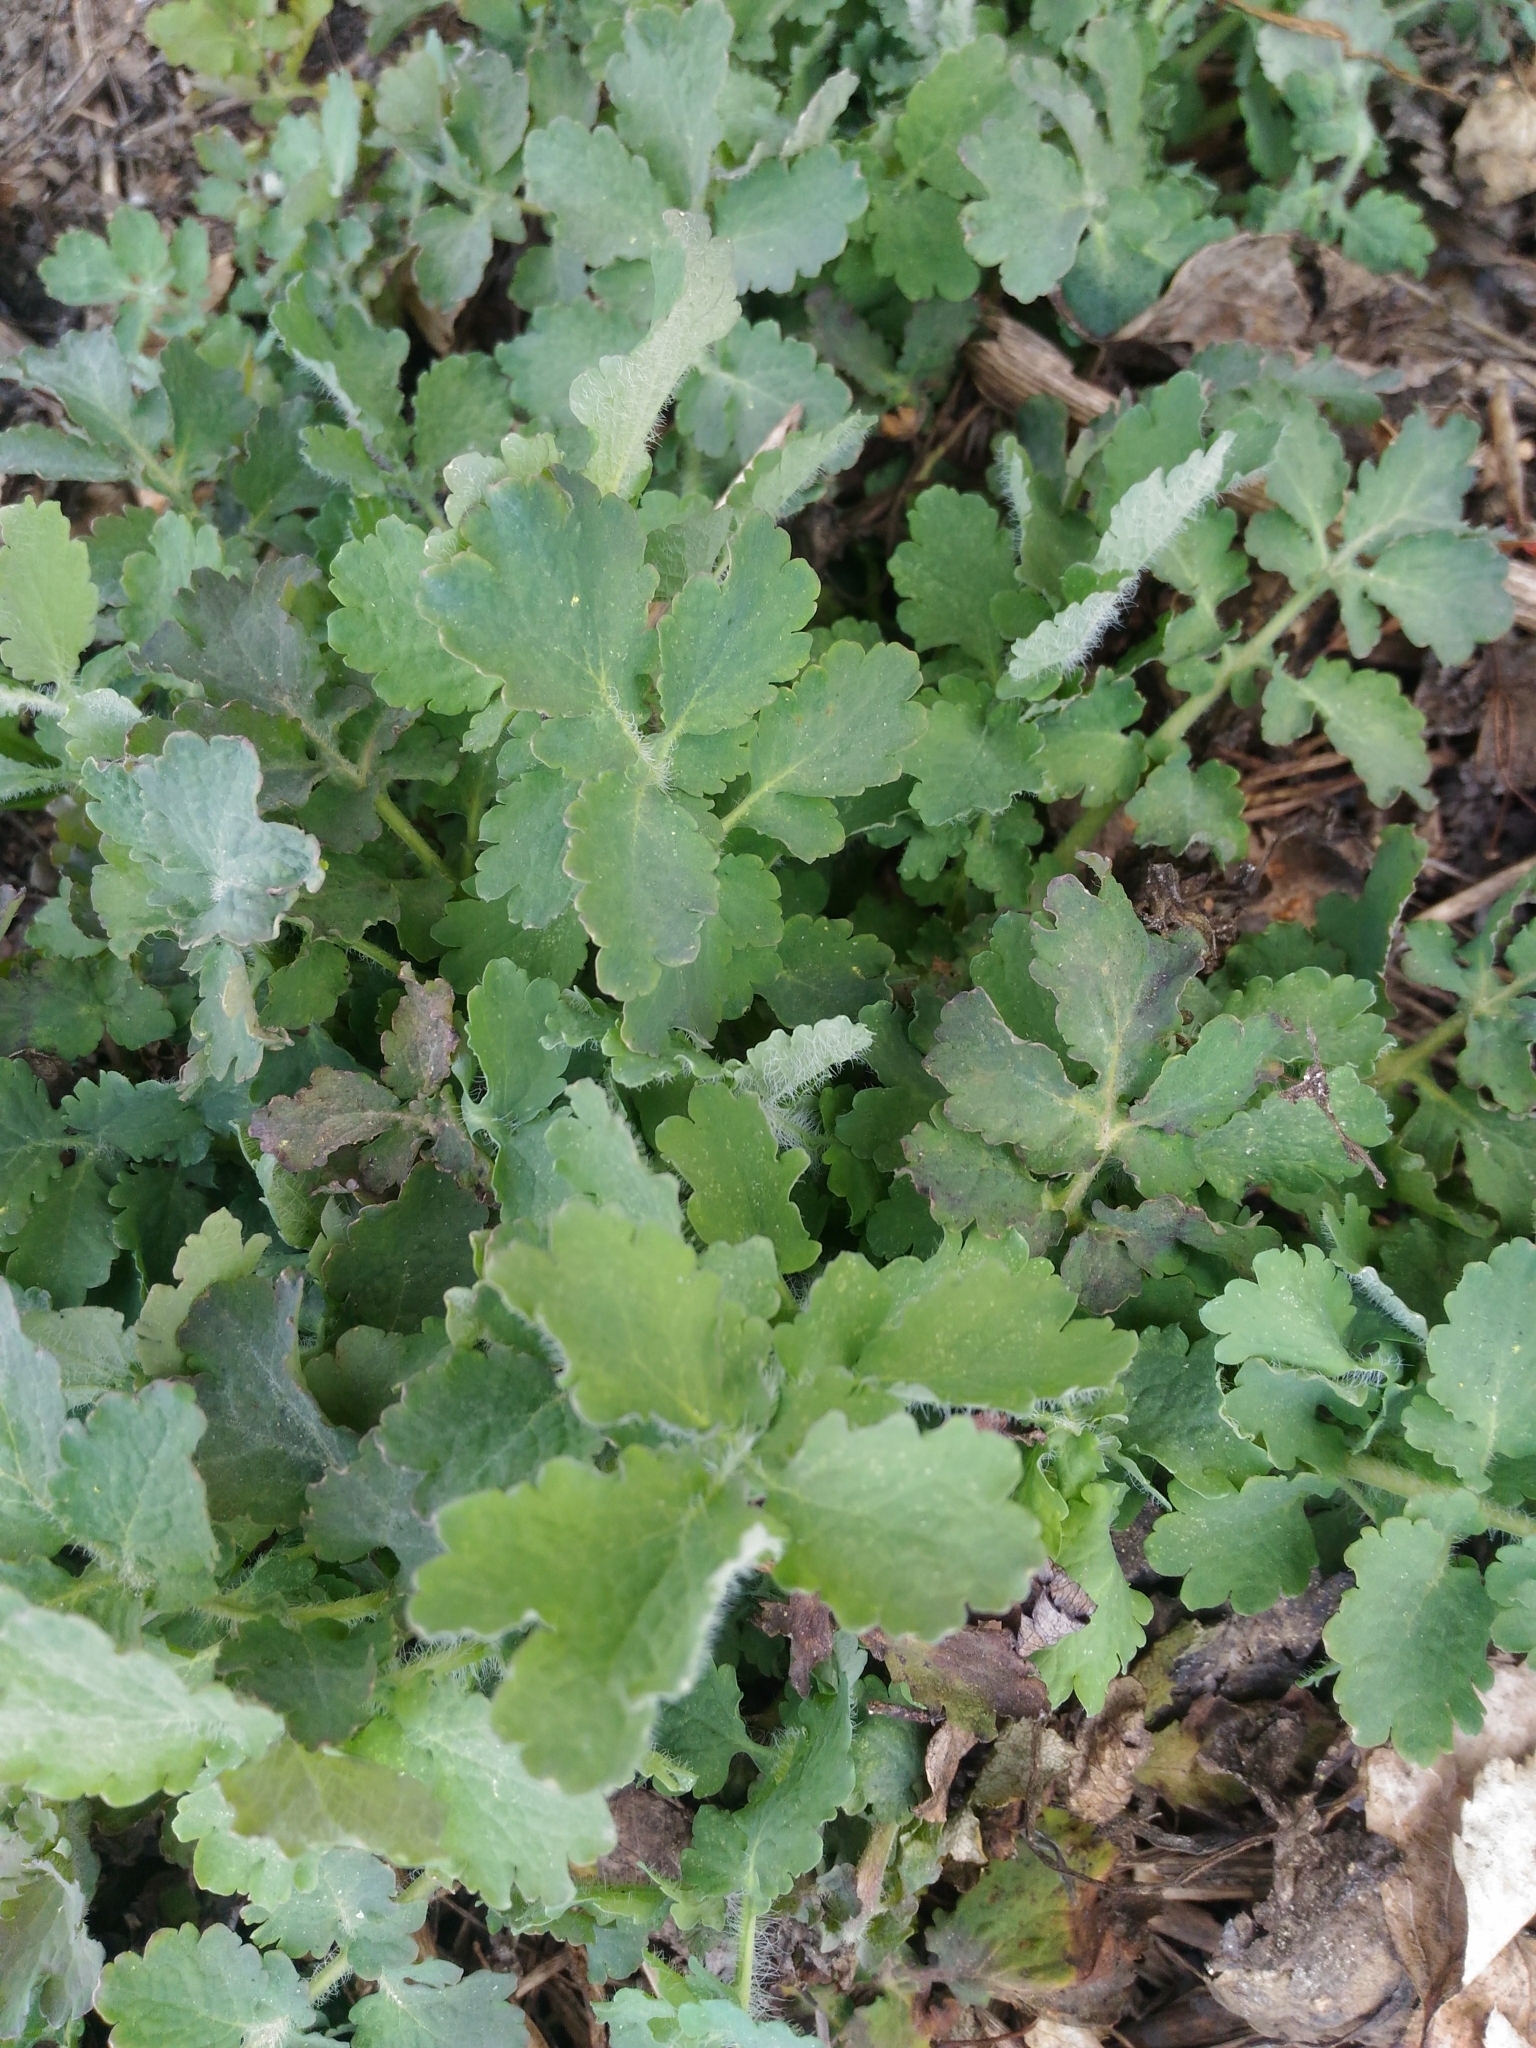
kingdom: Plantae
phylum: Tracheophyta
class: Magnoliopsida
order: Ranunculales
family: Papaveraceae
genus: Chelidonium
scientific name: Chelidonium majus
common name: Greater celandine
